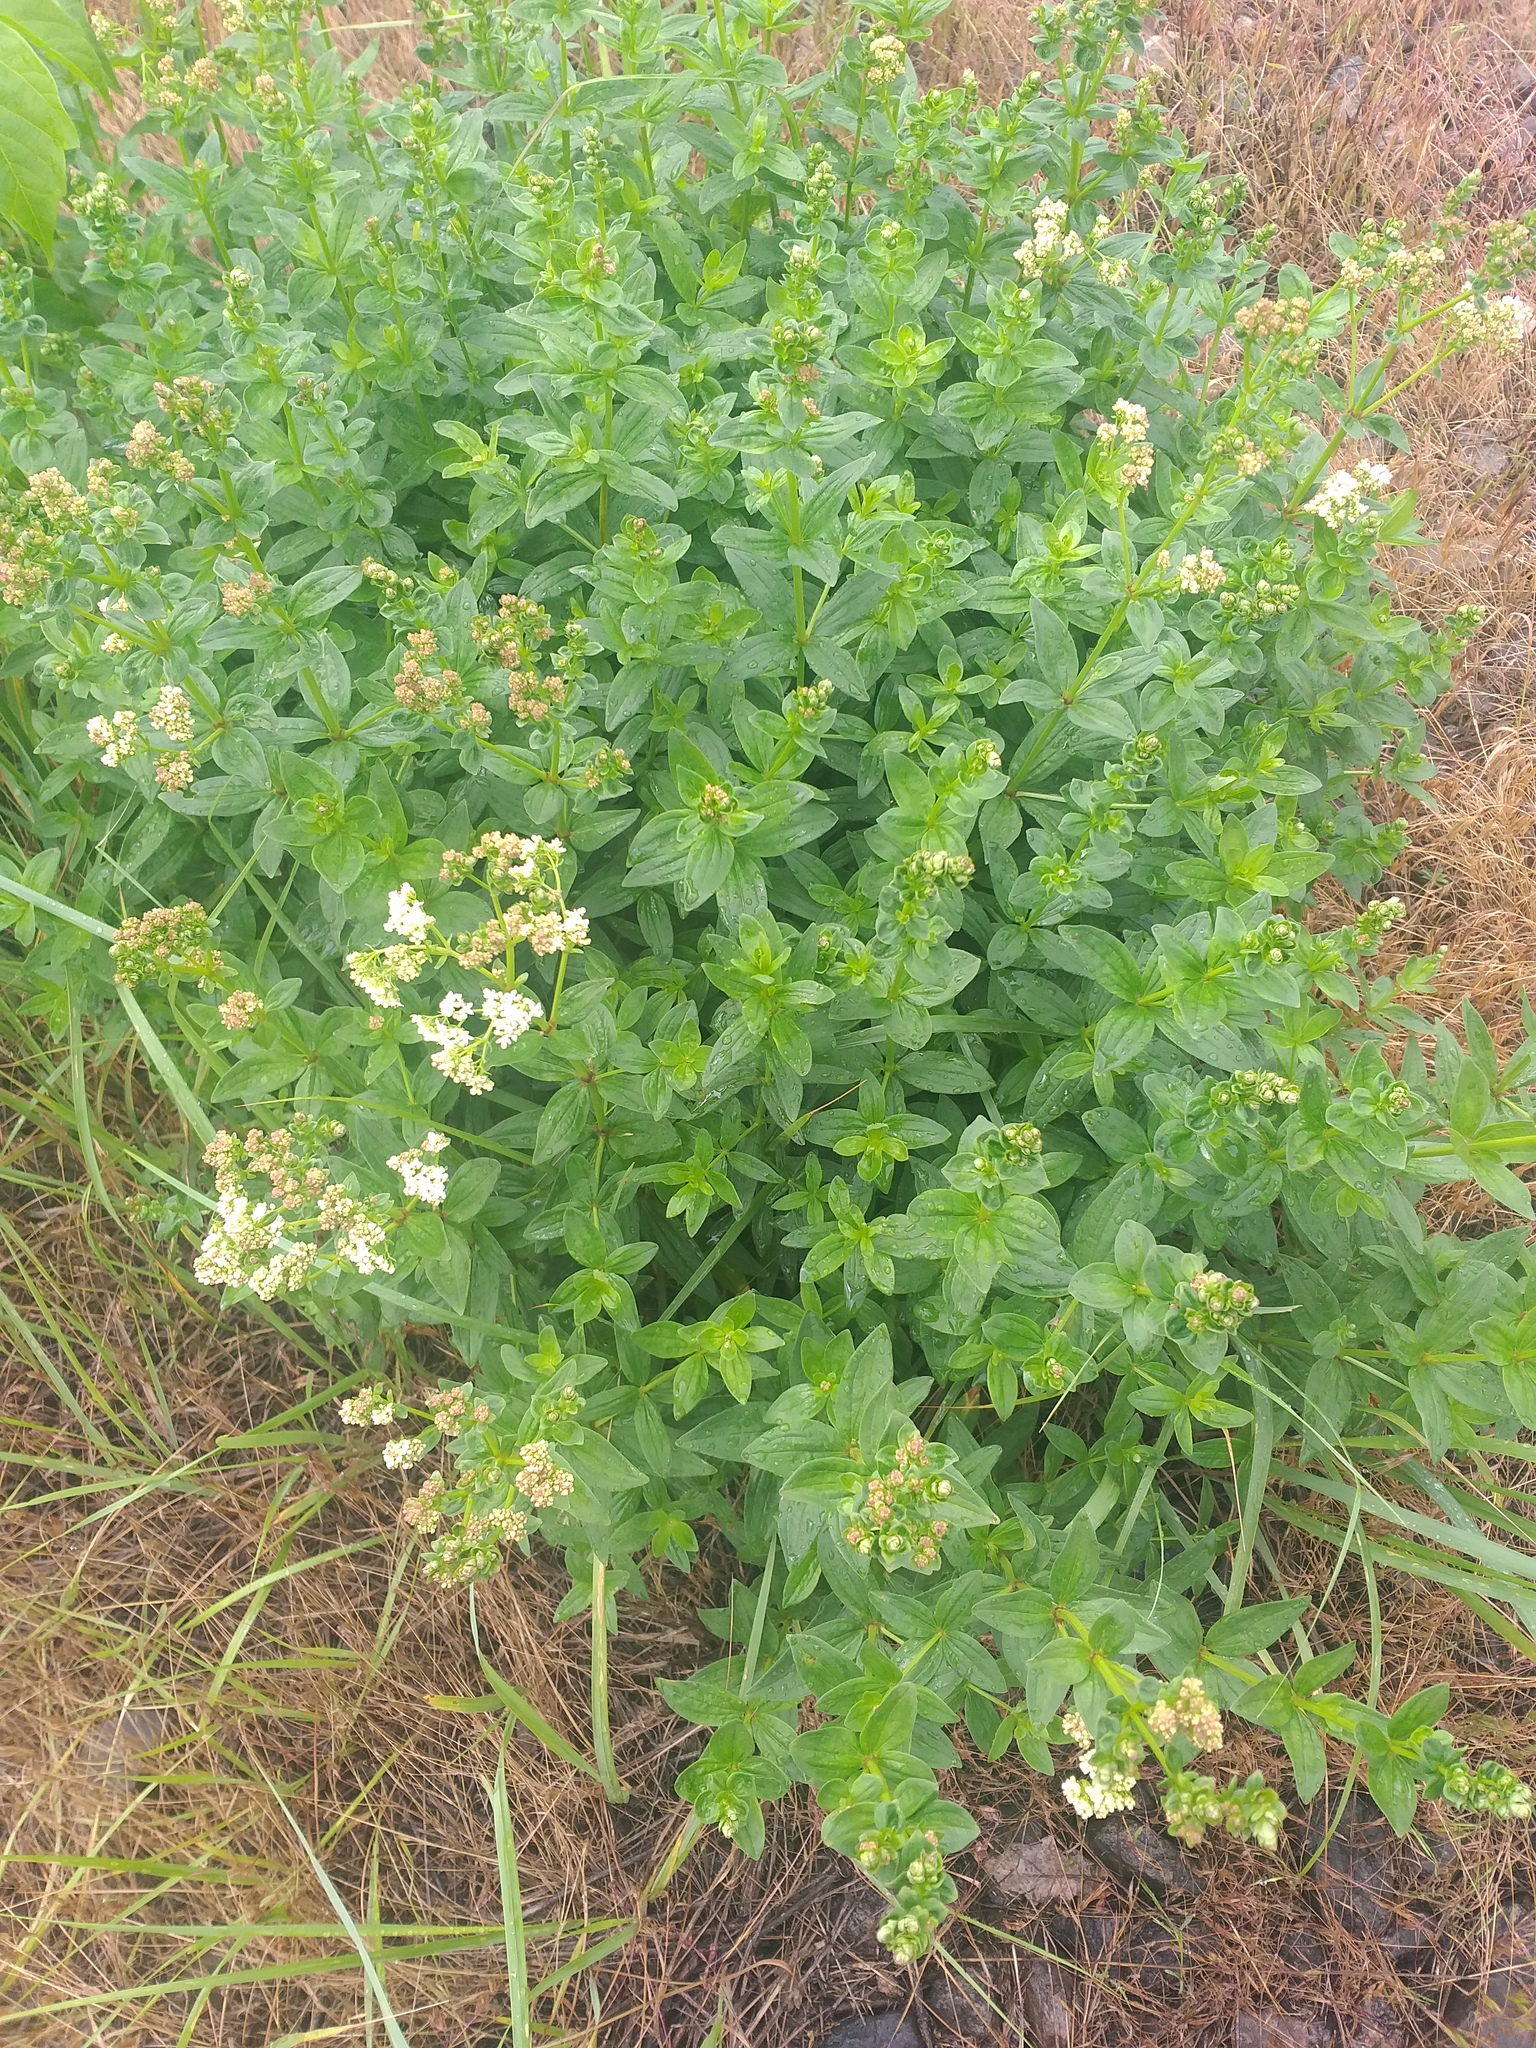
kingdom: Plantae
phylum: Tracheophyta
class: Magnoliopsida
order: Gentianales
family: Rubiaceae
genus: Galium
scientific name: Galium rubioides
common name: European bedstraw
